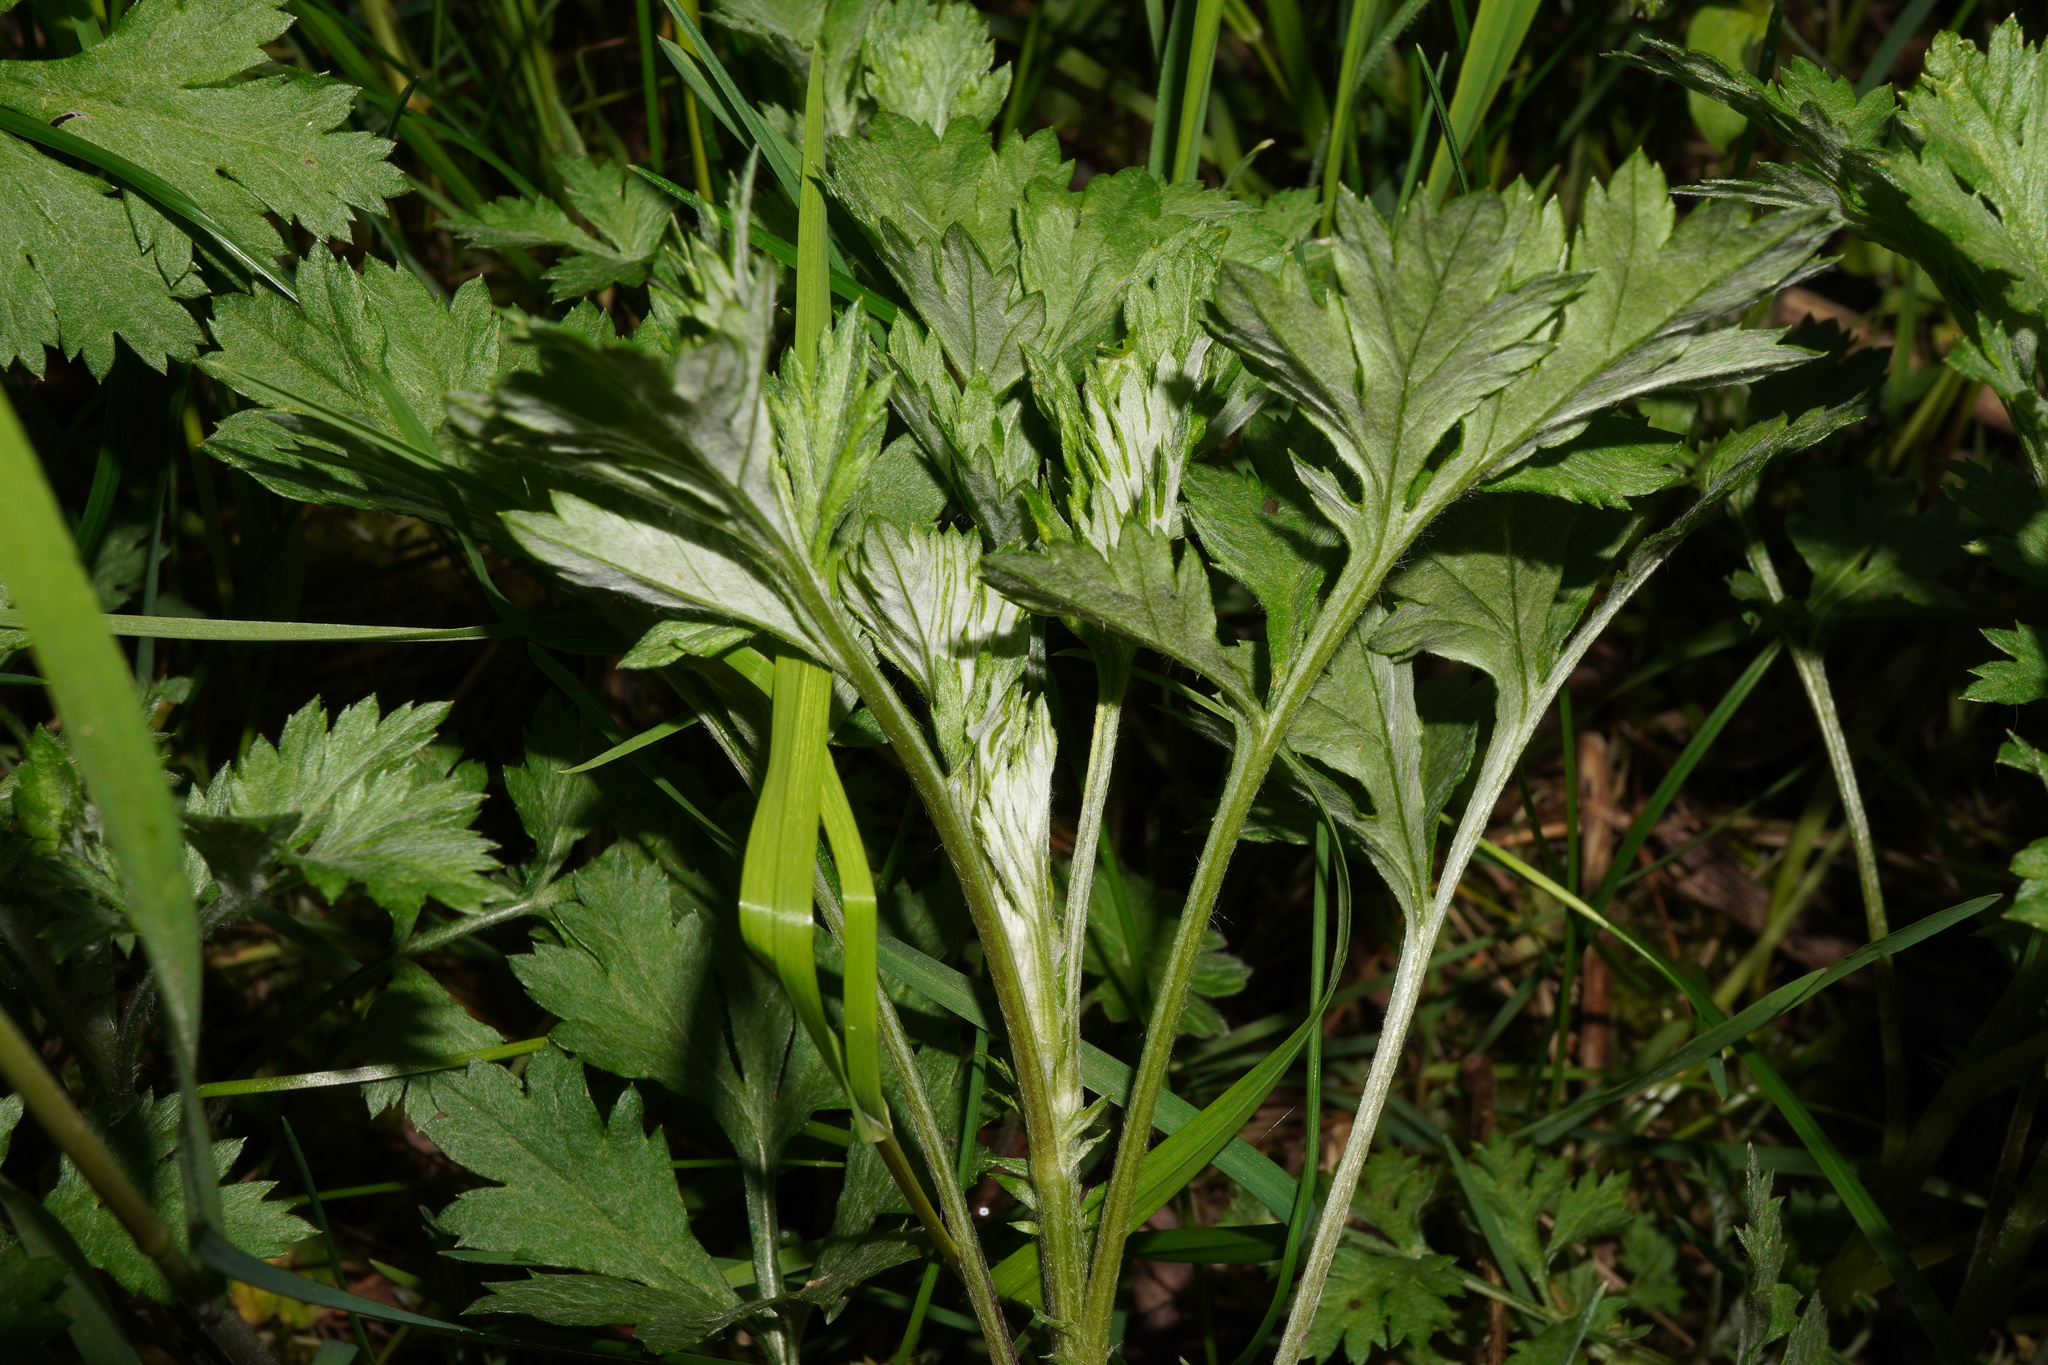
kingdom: Plantae
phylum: Tracheophyta
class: Magnoliopsida
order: Asterales
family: Asteraceae
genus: Artemisia
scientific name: Artemisia vulgaris
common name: Mugwort
